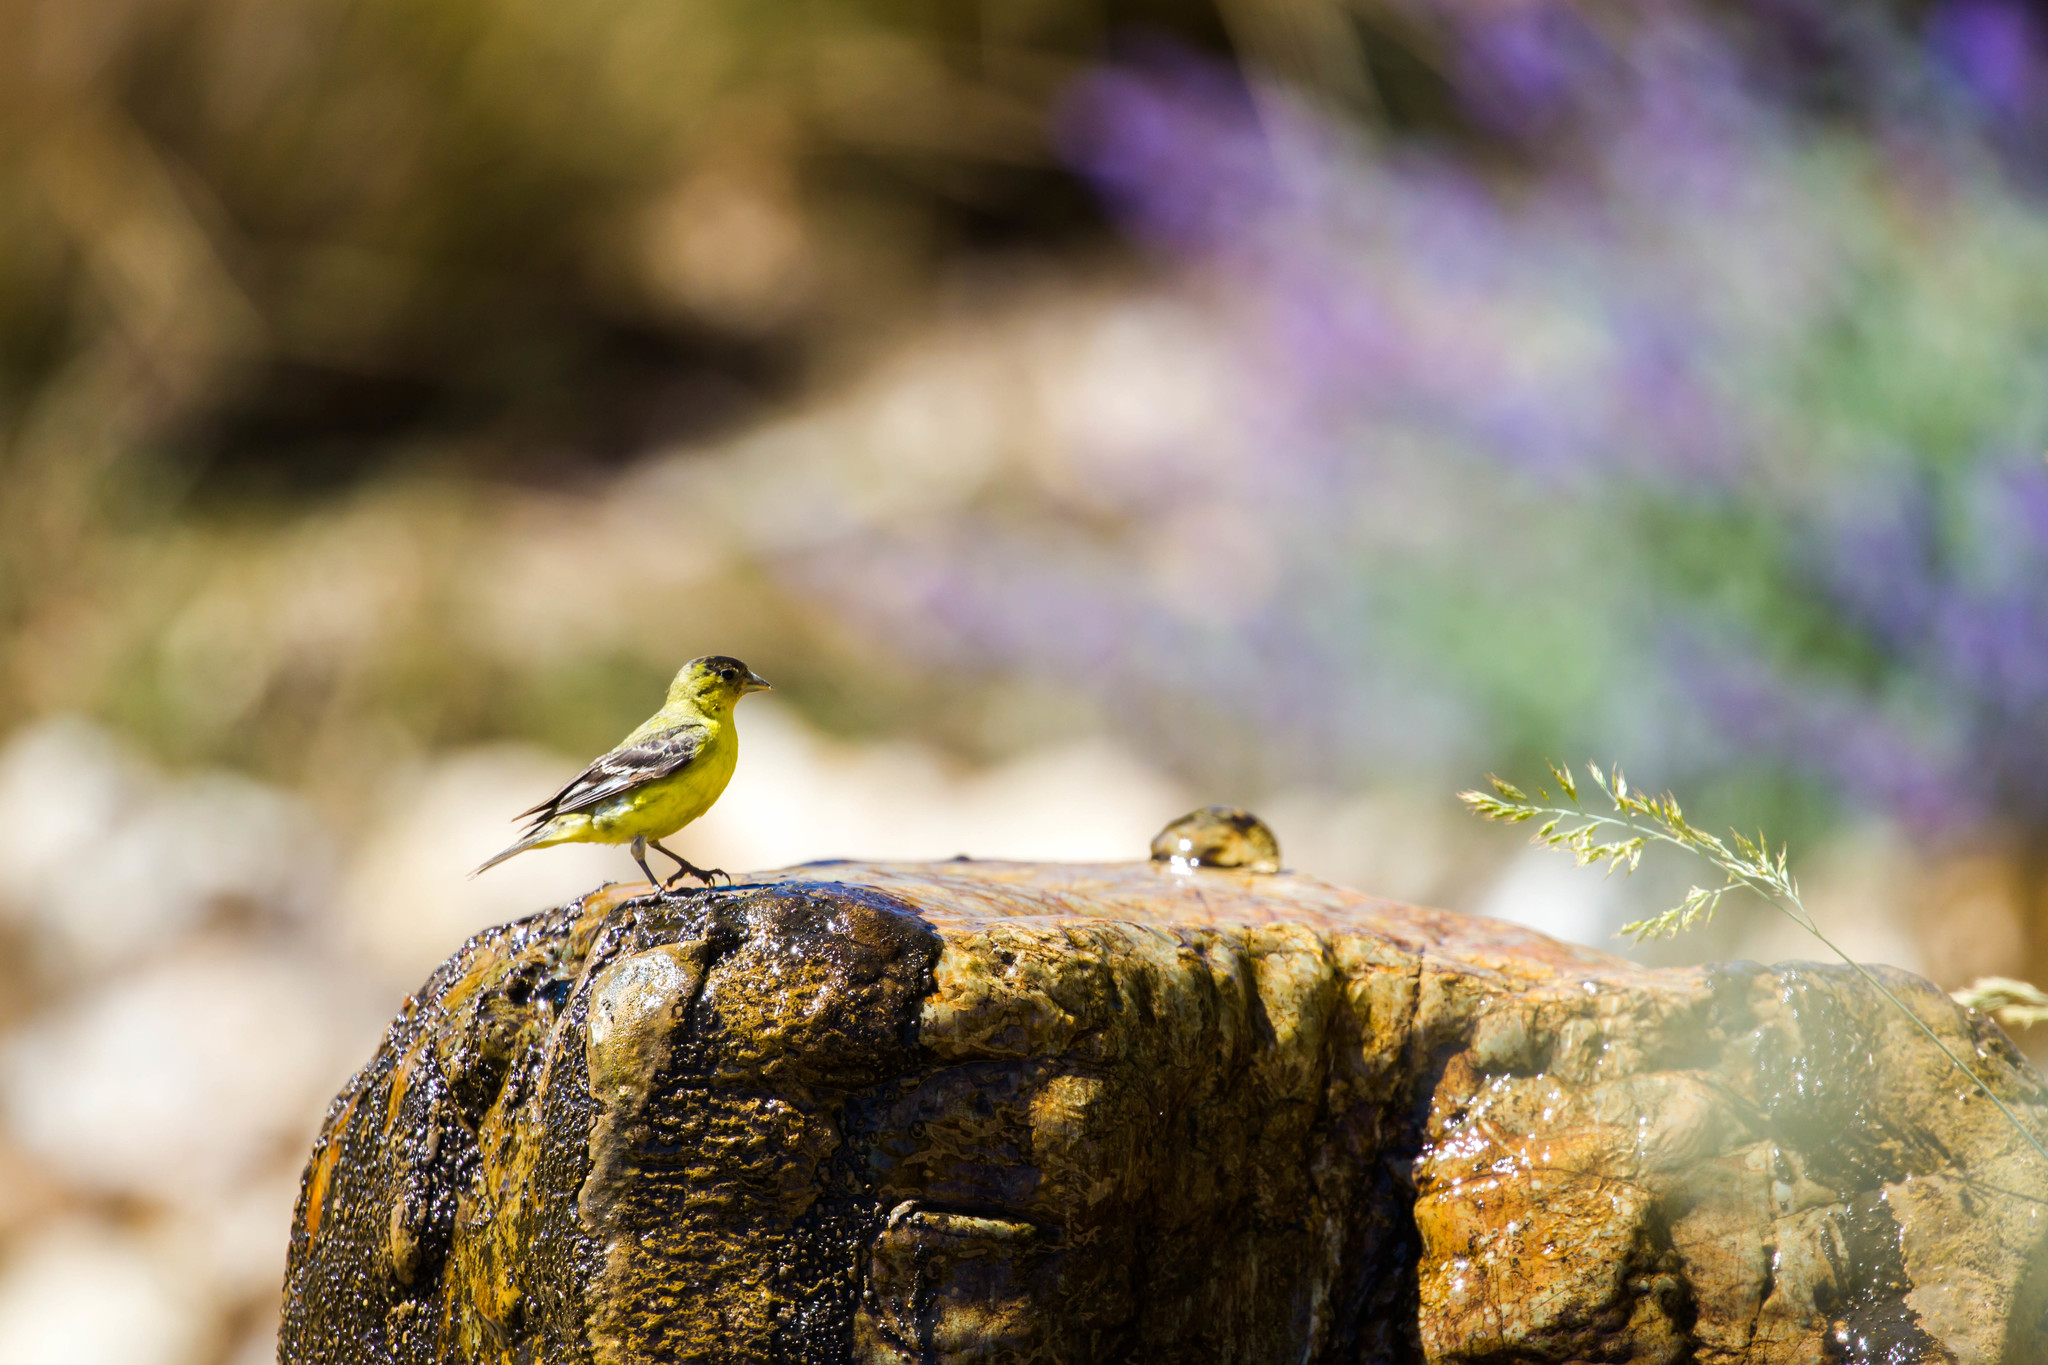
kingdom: Animalia
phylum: Chordata
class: Aves
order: Passeriformes
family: Fringillidae
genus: Spinus
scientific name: Spinus psaltria
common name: Lesser goldfinch
